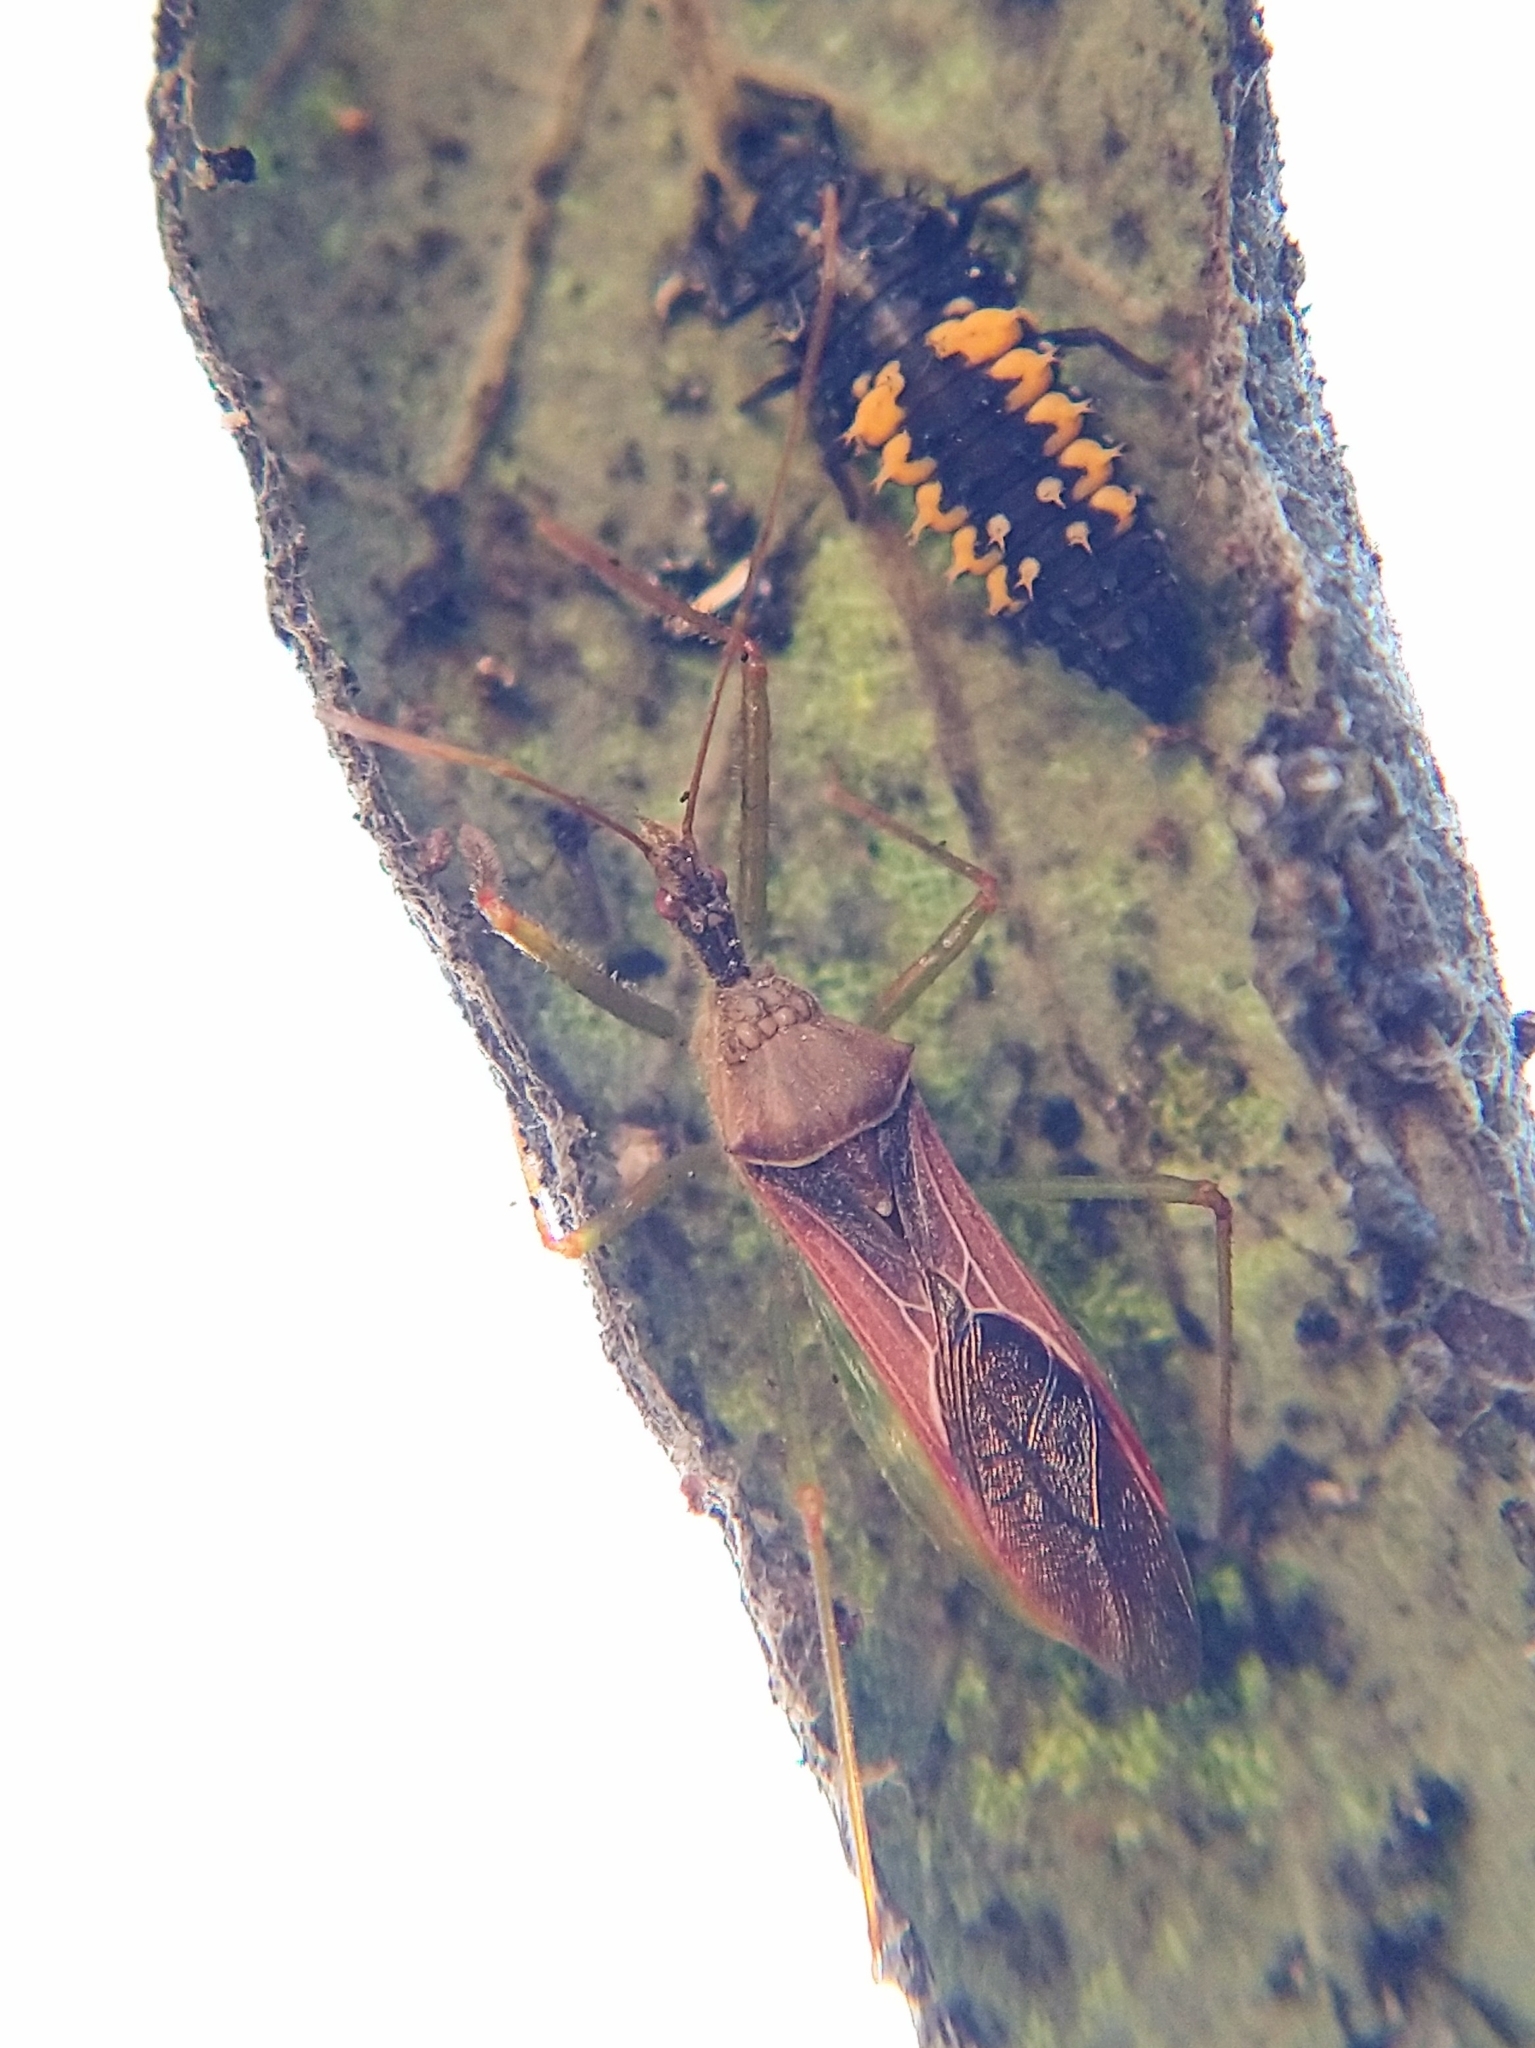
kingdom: Animalia
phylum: Arthropoda
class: Insecta
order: Hemiptera
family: Reduviidae
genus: Zelus
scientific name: Zelus renardii
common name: Assassin bug
